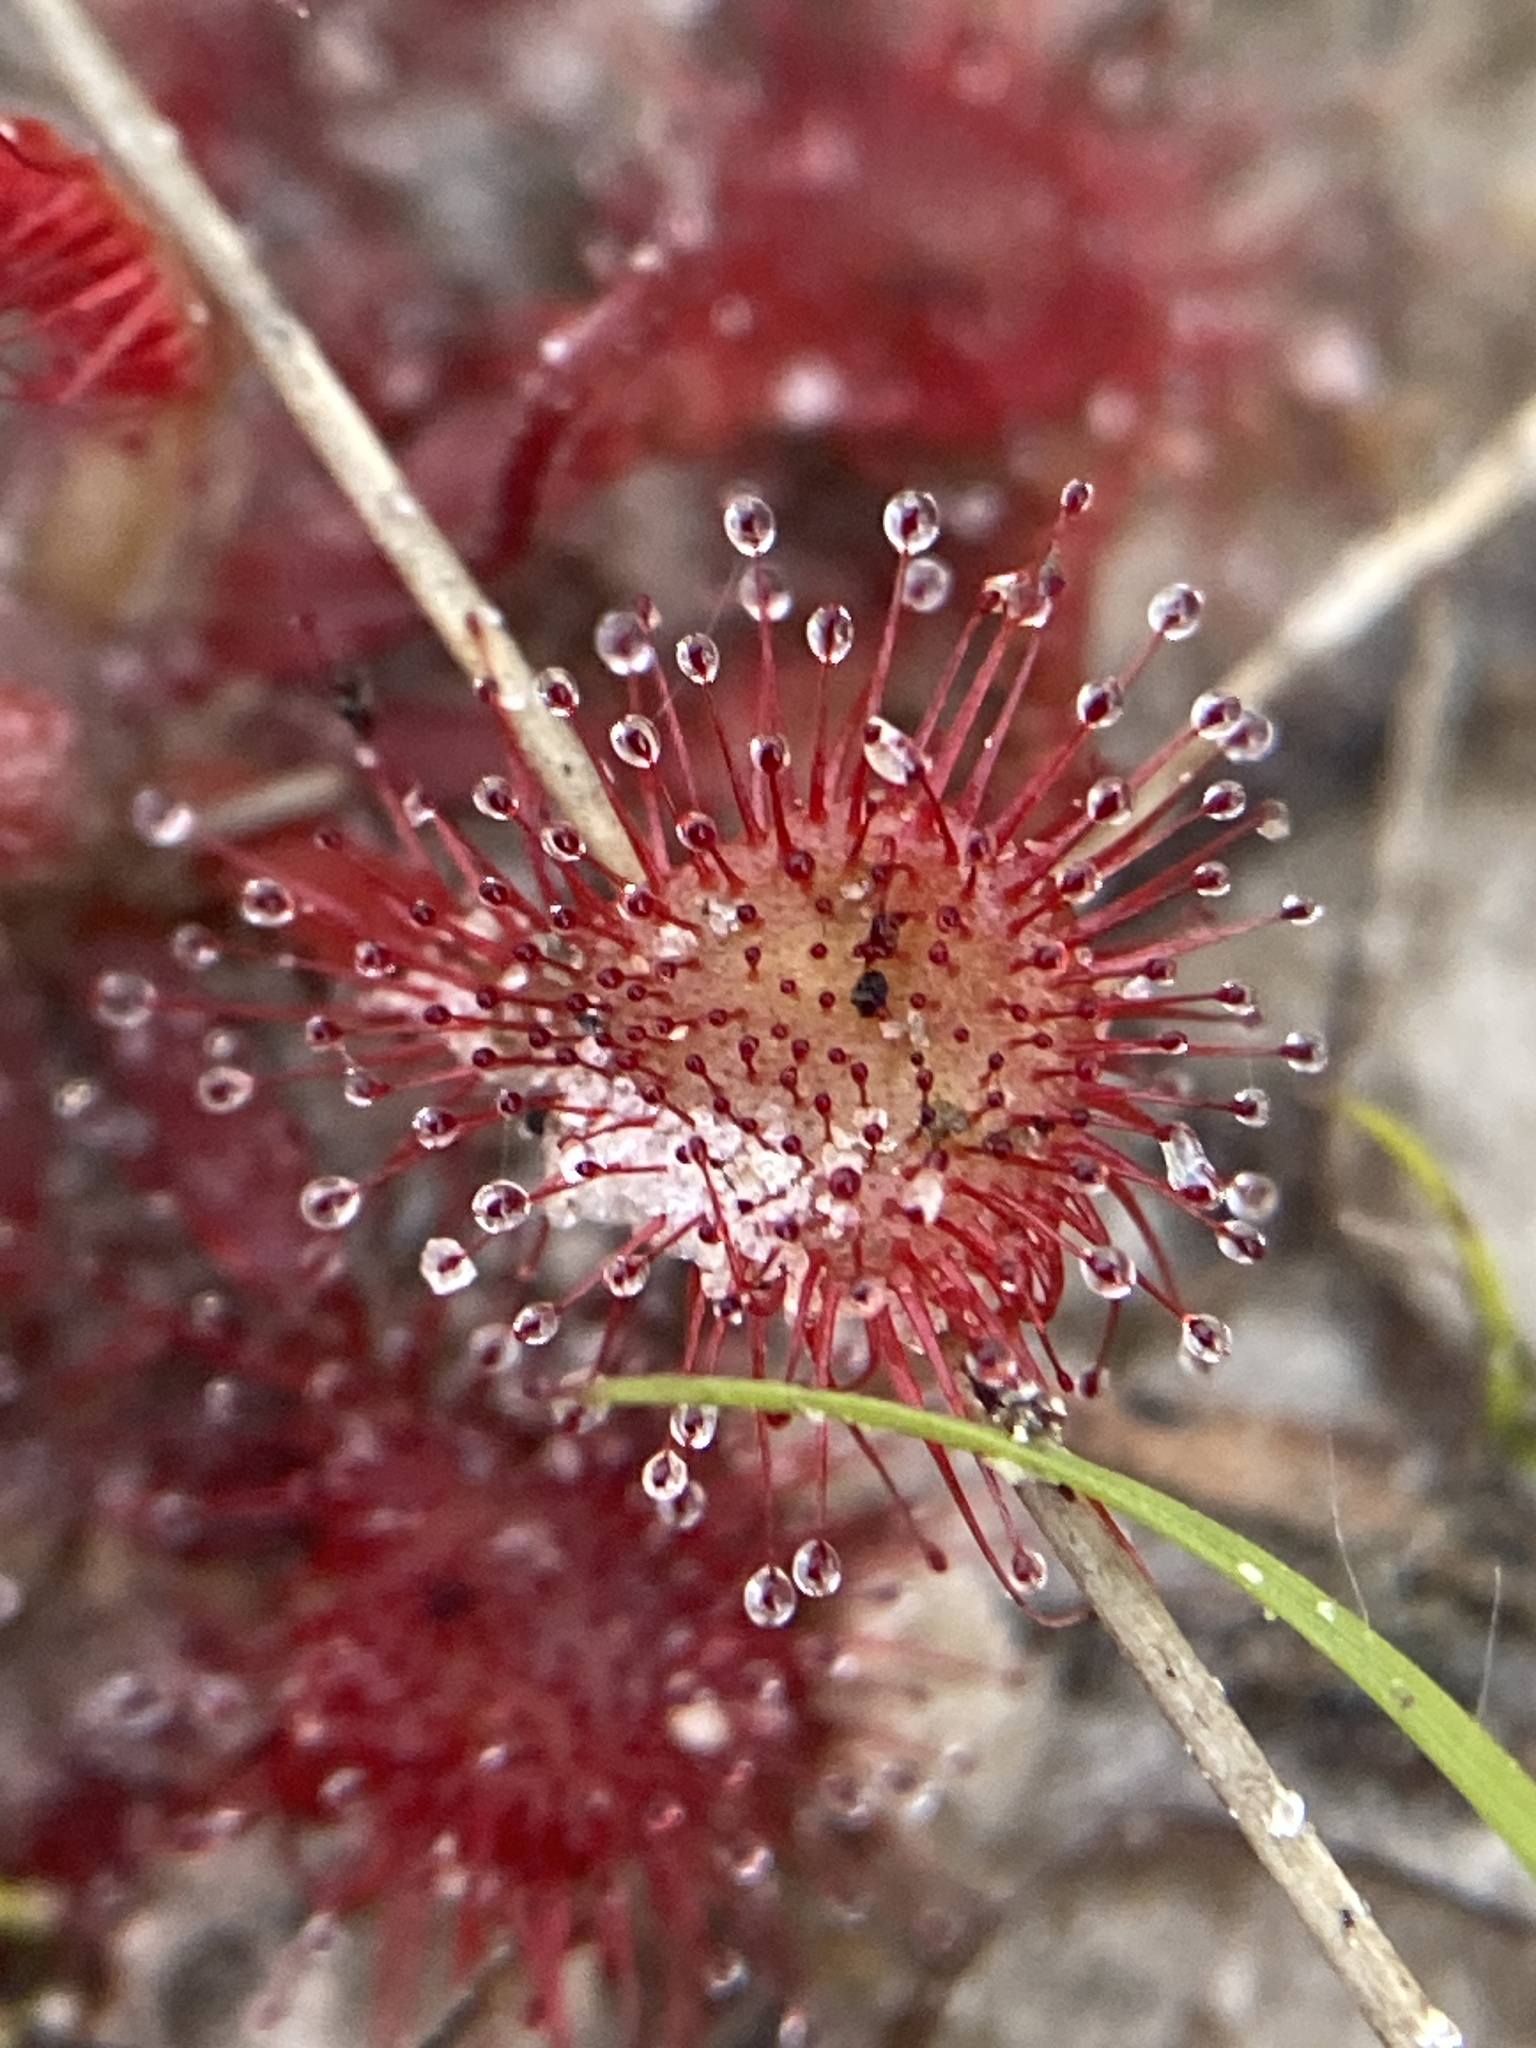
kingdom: Plantae
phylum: Tracheophyta
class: Magnoliopsida
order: Caryophyllales
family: Droseraceae
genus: Drosera
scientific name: Drosera capillaris
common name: Pink sundew
